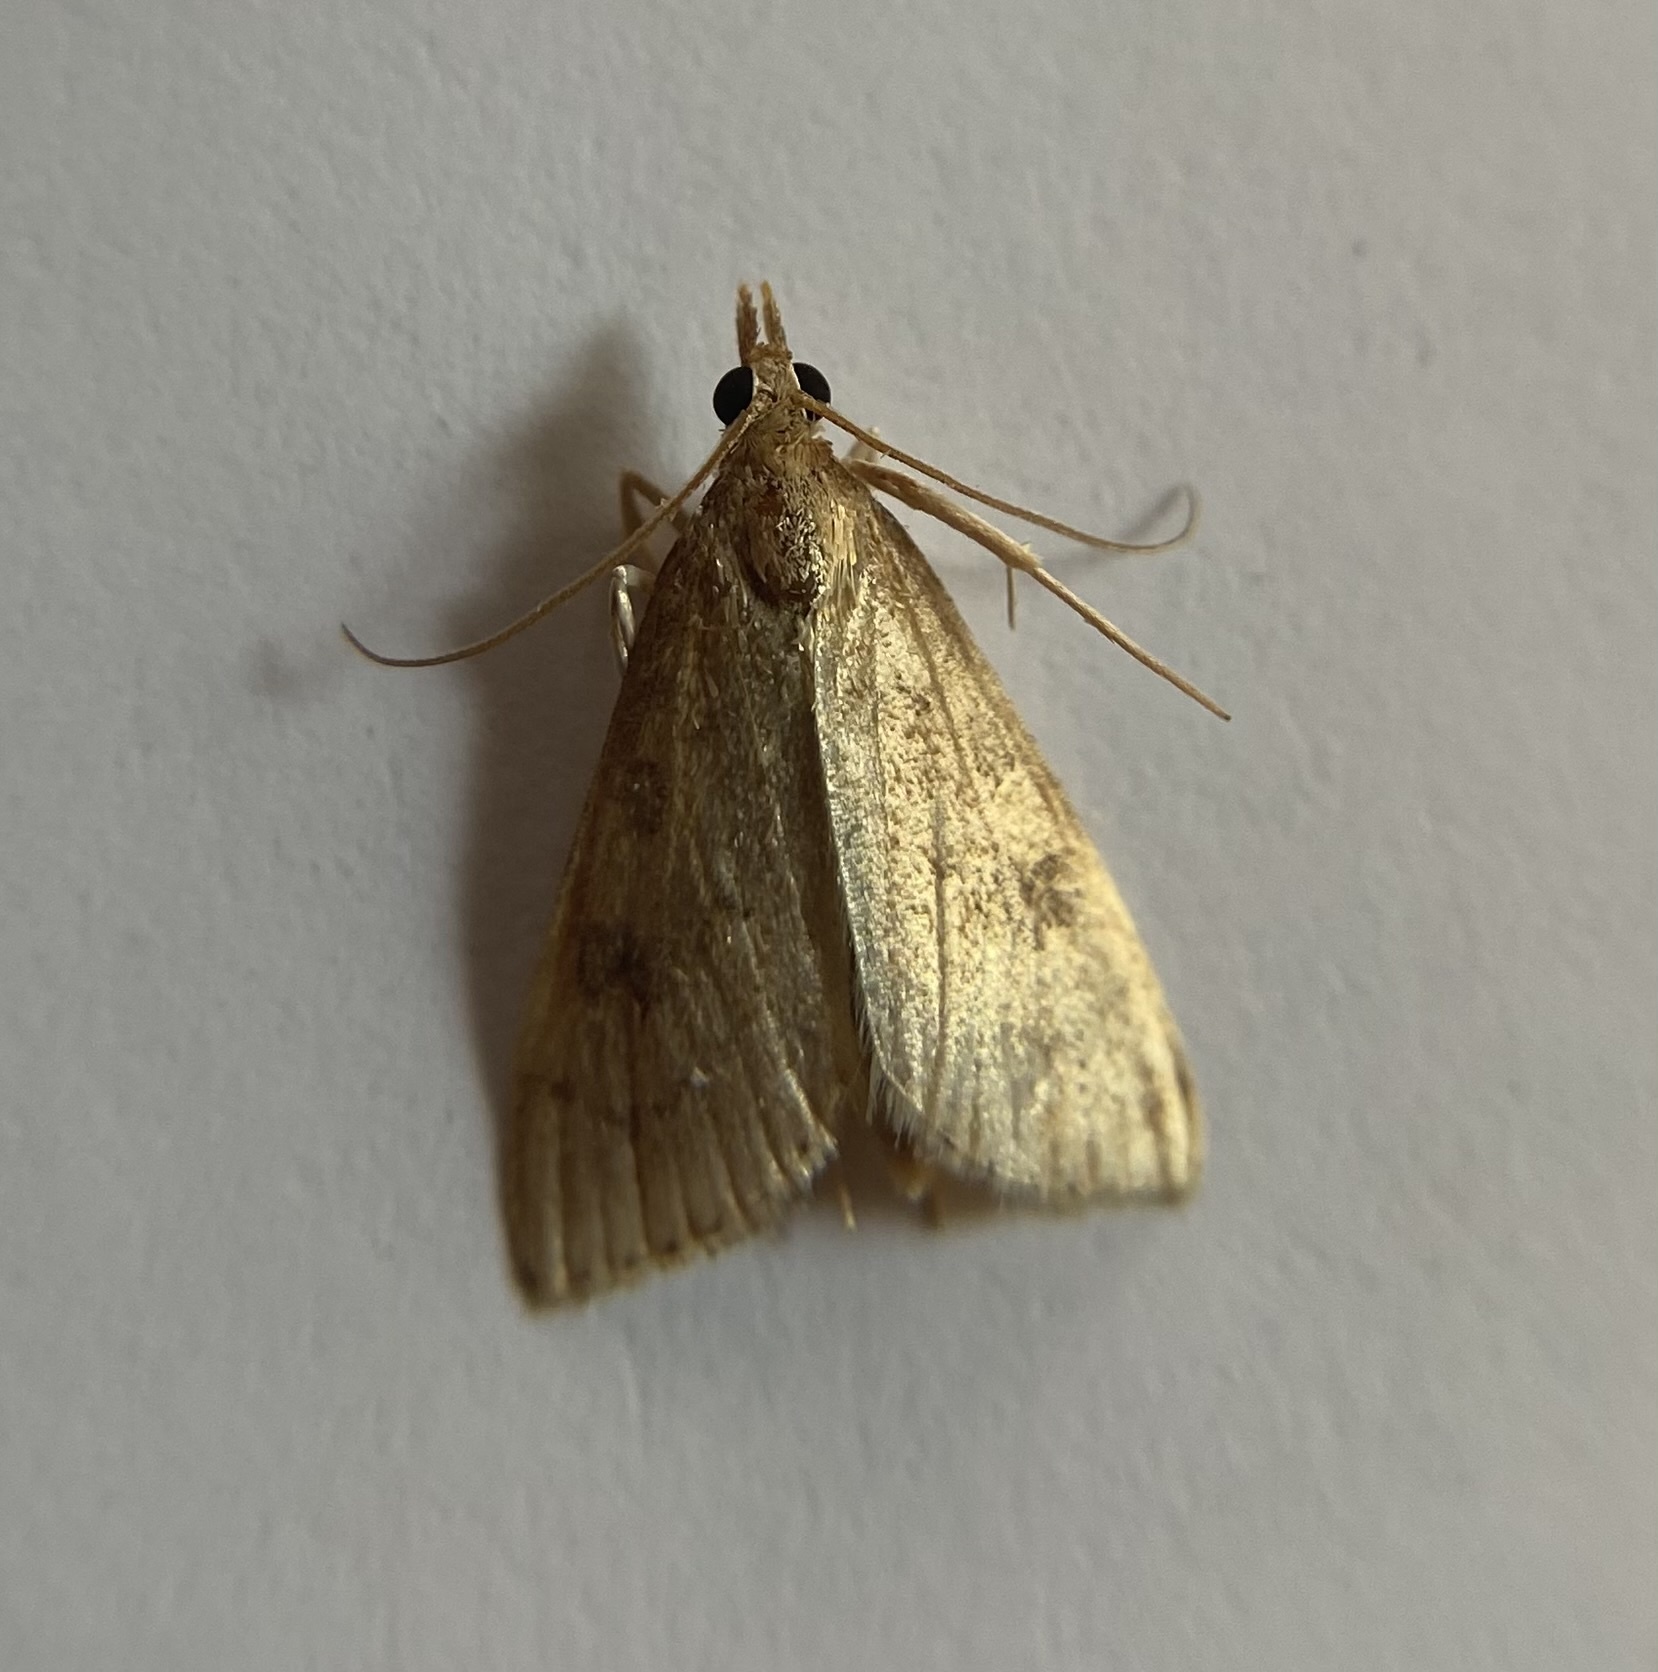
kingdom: Animalia
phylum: Arthropoda
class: Insecta
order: Lepidoptera
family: Crambidae
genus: Udea
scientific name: Udea rubigalis
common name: Celery leaftier moth
